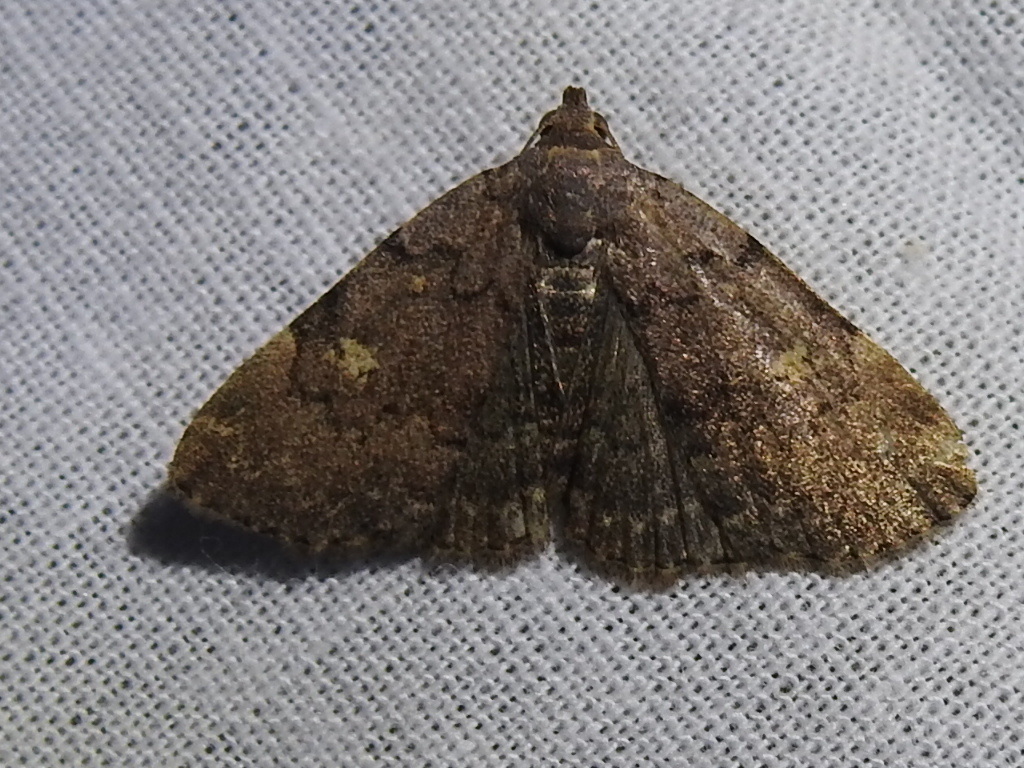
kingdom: Animalia
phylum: Arthropoda
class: Insecta
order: Lepidoptera
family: Erebidae
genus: Idia
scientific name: Idia aemula
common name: Common idia moth
